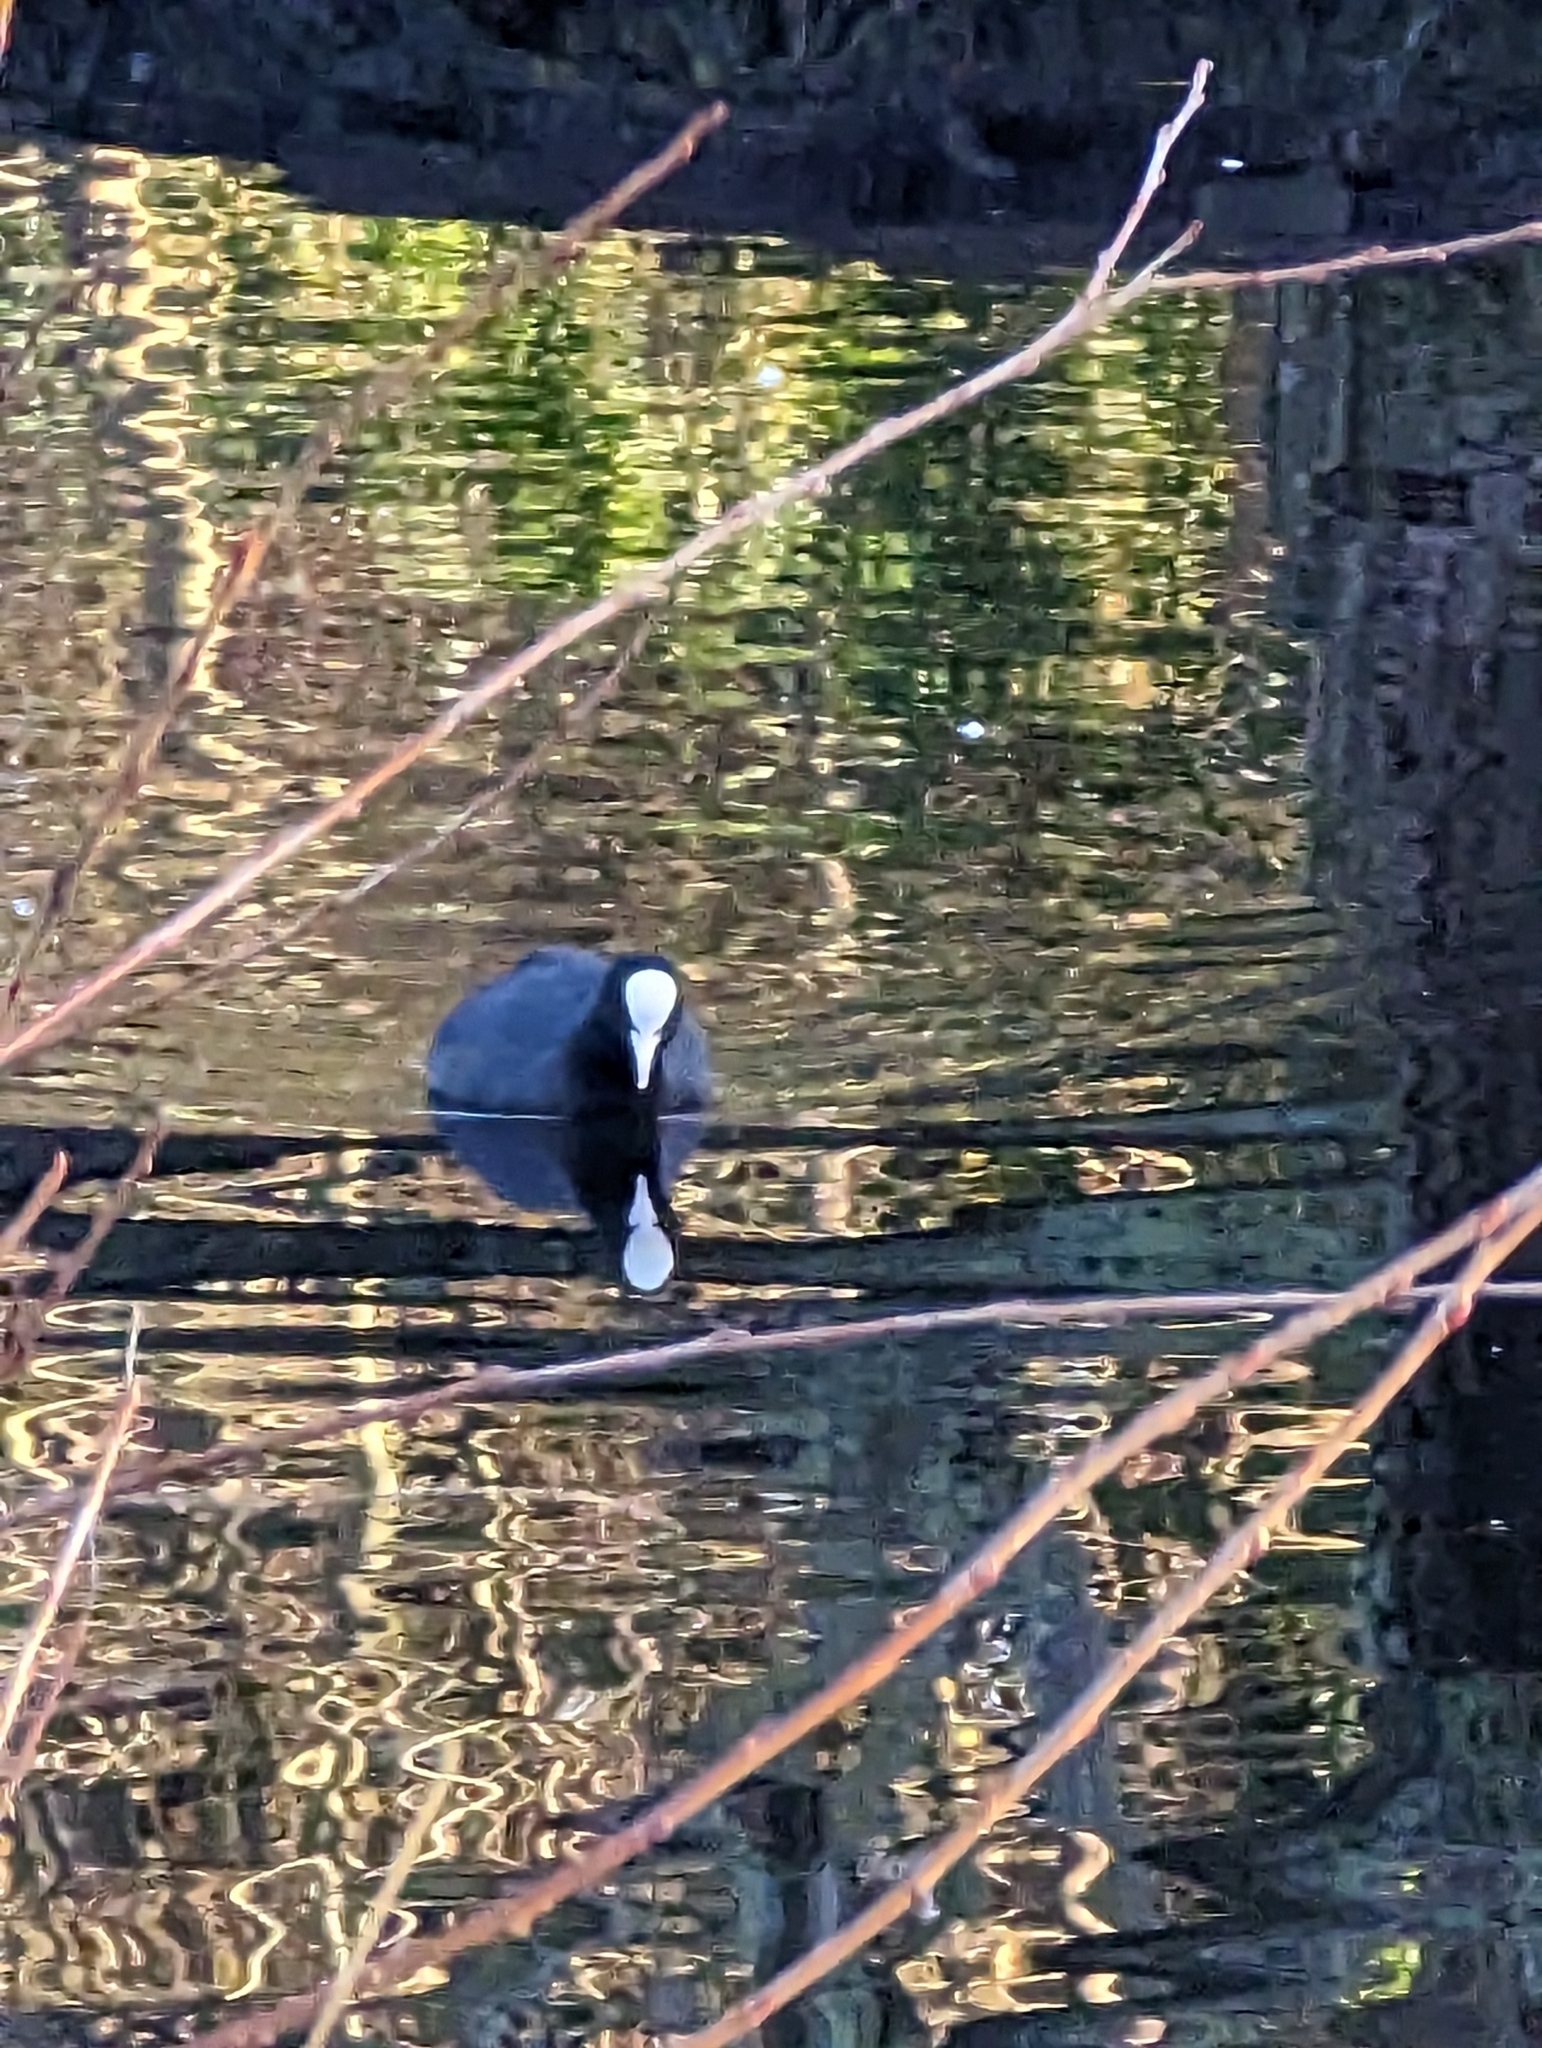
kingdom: Animalia
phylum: Chordata
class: Aves
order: Gruiformes
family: Rallidae
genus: Fulica
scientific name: Fulica atra
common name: Eurasian coot
